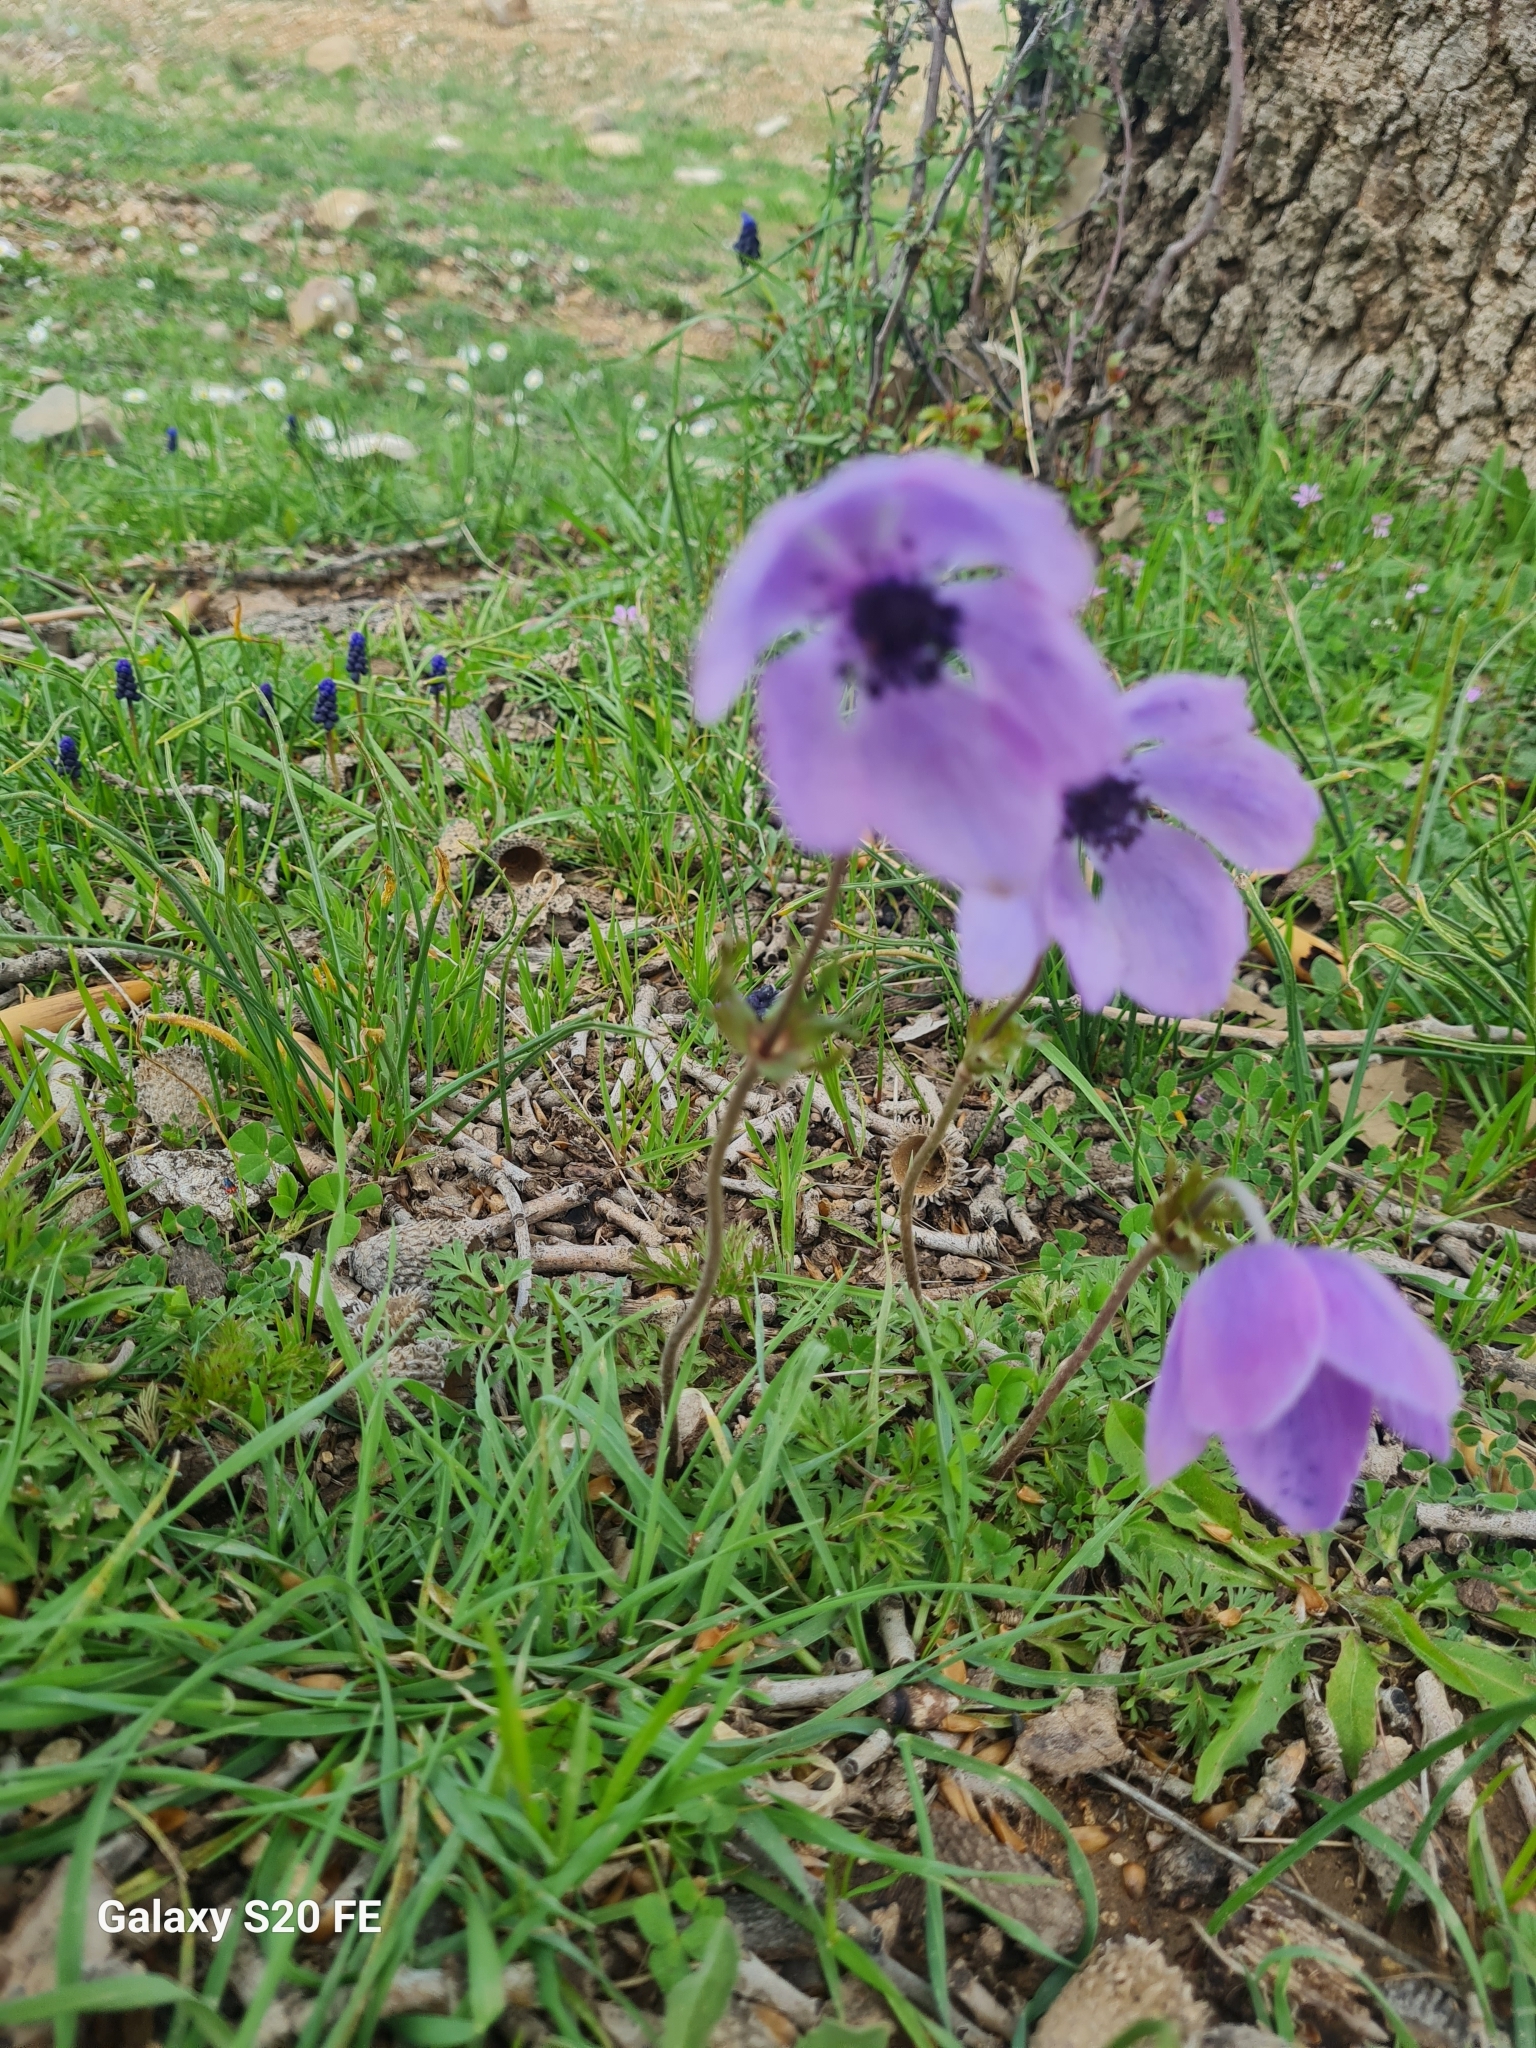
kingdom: Plantae
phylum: Tracheophyta
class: Magnoliopsida
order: Ranunculales
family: Ranunculaceae
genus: Anemone
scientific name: Anemone coronaria
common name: Poppy anemone
